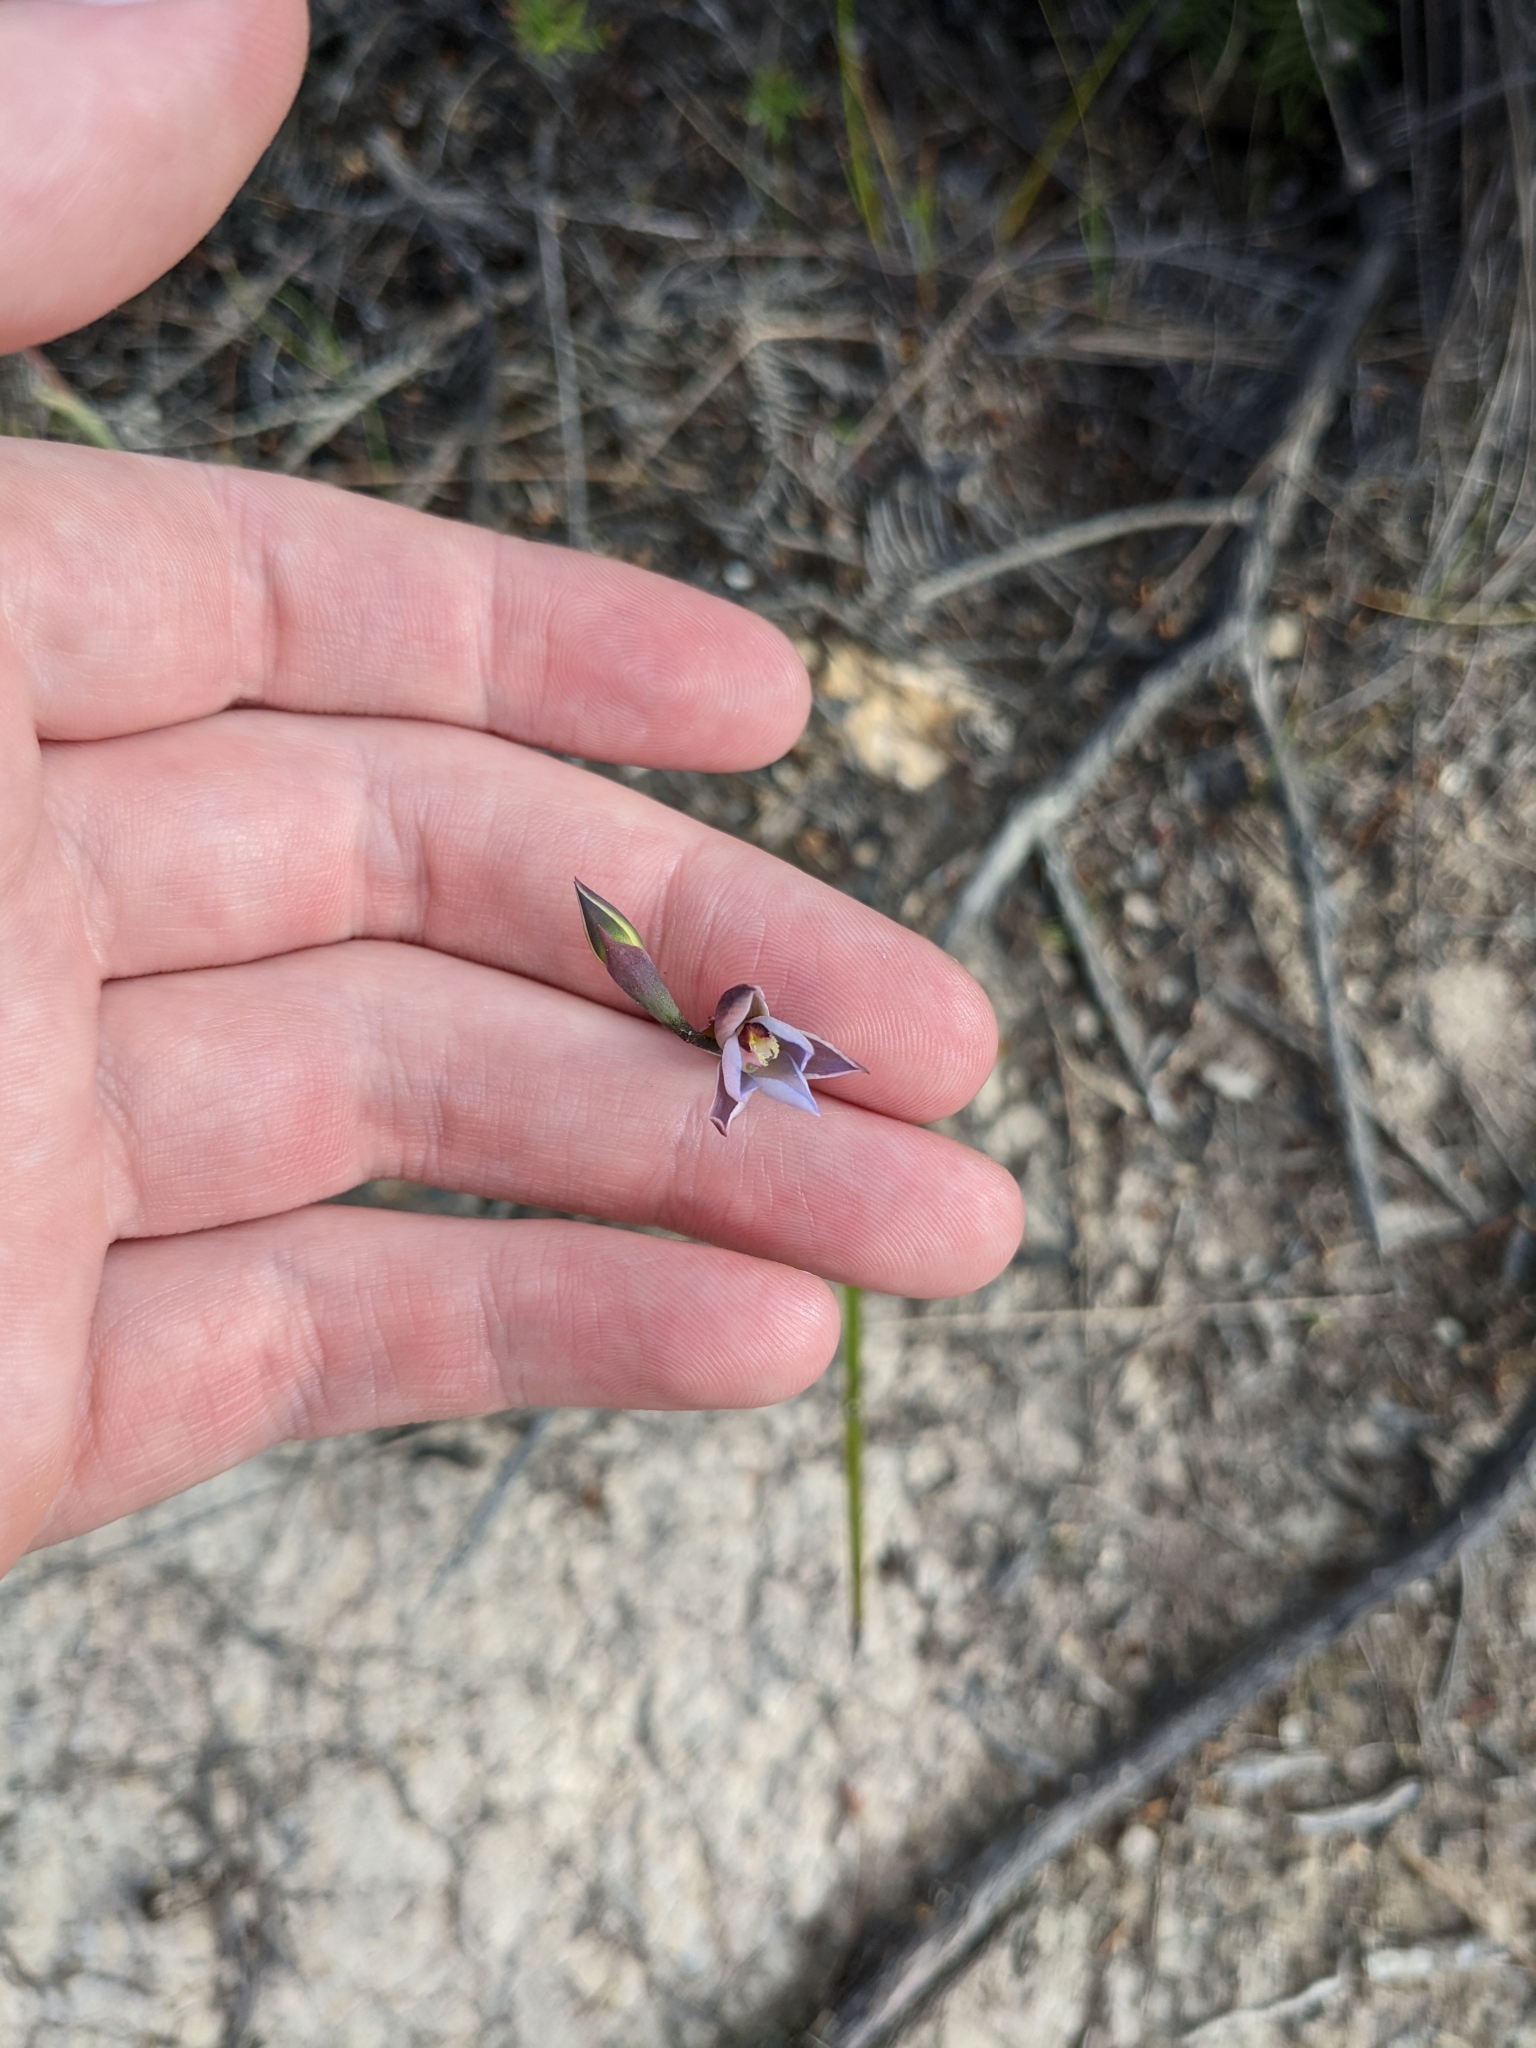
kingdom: Plantae
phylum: Tracheophyta
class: Liliopsida
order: Asparagales
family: Orchidaceae
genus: Thelymitra
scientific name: Thelymitra pulchella
